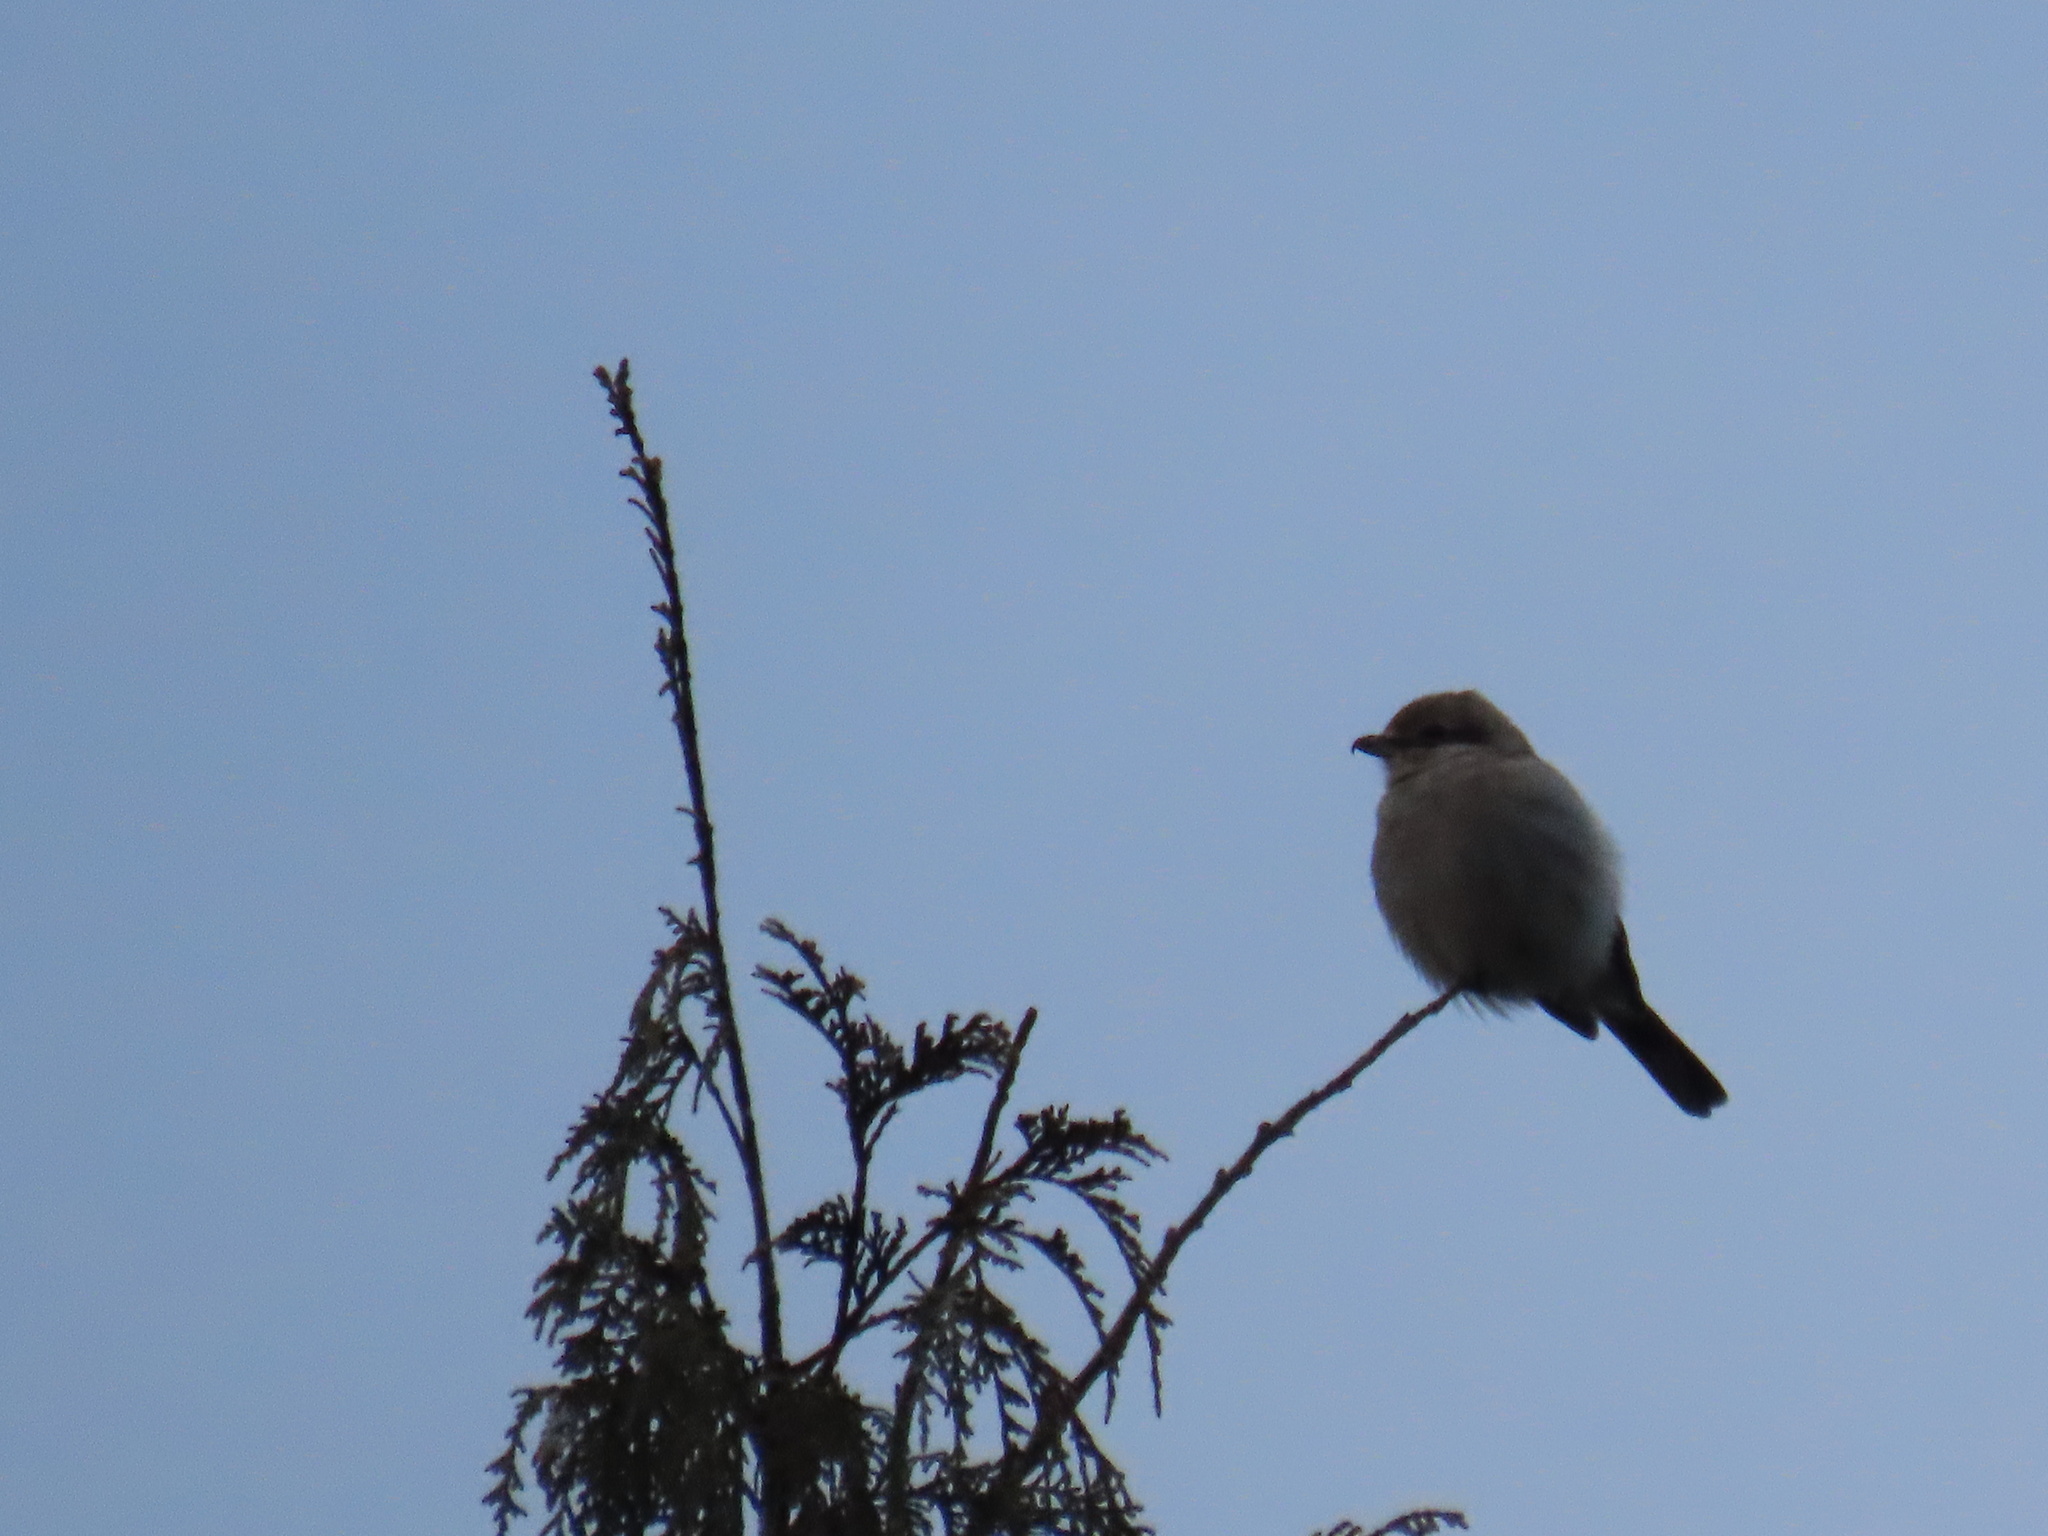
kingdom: Animalia
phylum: Chordata
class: Aves
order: Passeriformes
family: Laniidae
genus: Lanius
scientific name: Lanius borealis
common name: Northern shrike
